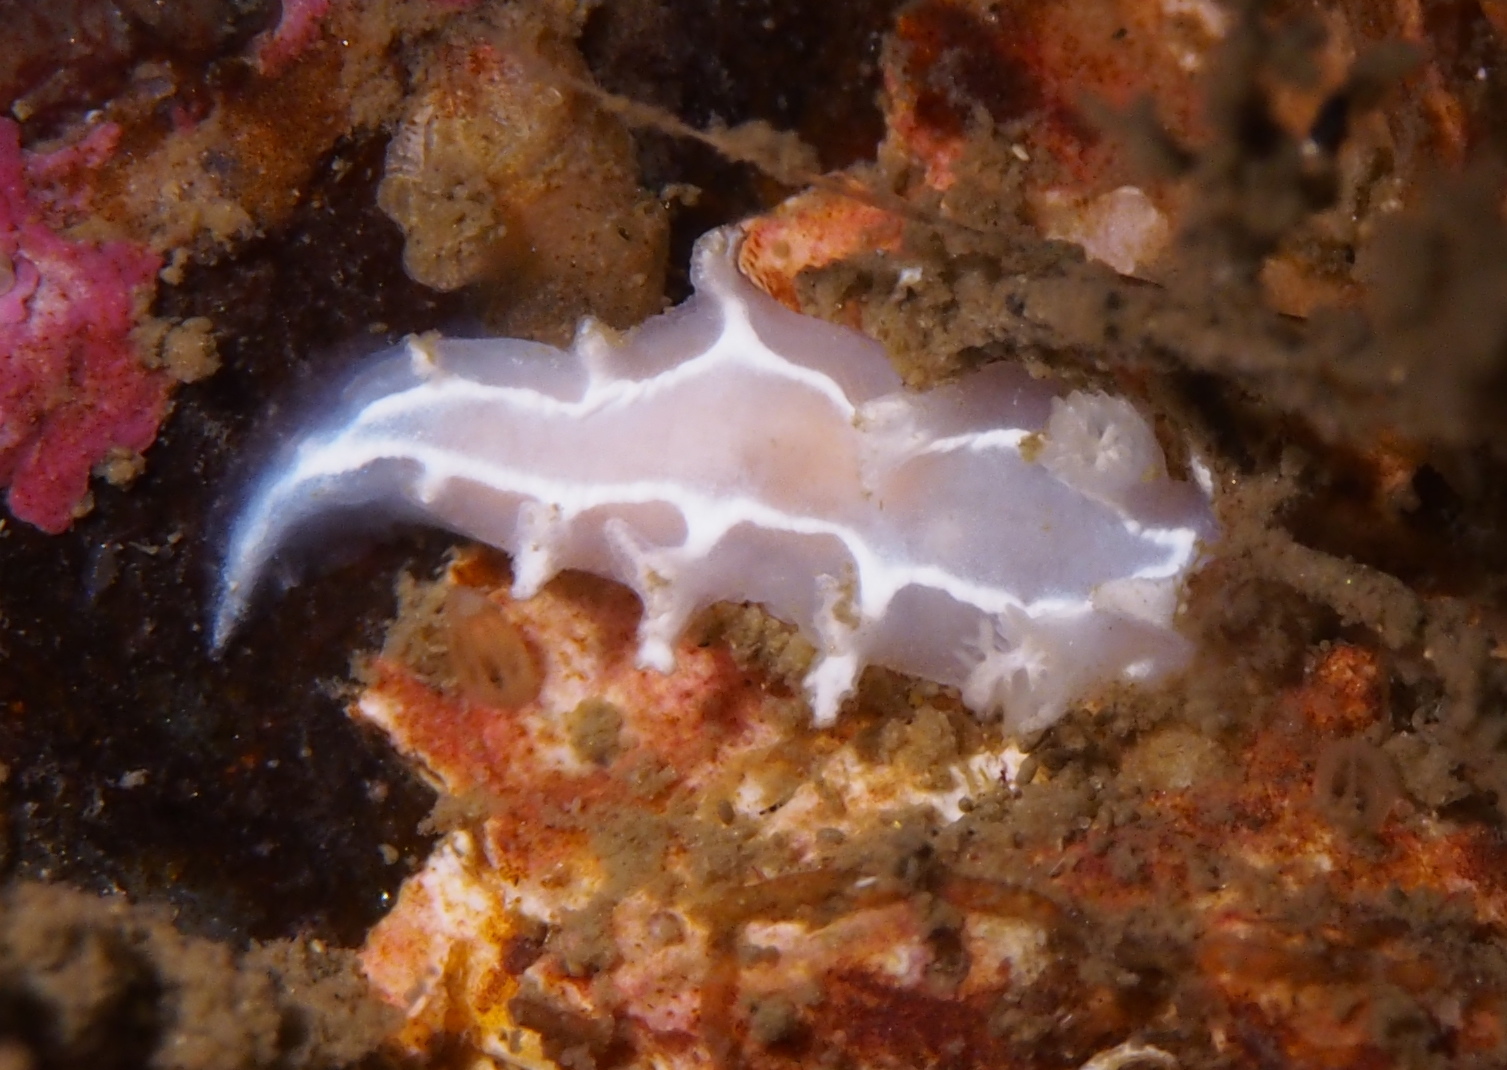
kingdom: Animalia
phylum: Mollusca
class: Gastropoda
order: Nudibranchia
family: Tritoniidae
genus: Duvaucelia
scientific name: Duvaucelia lineata
